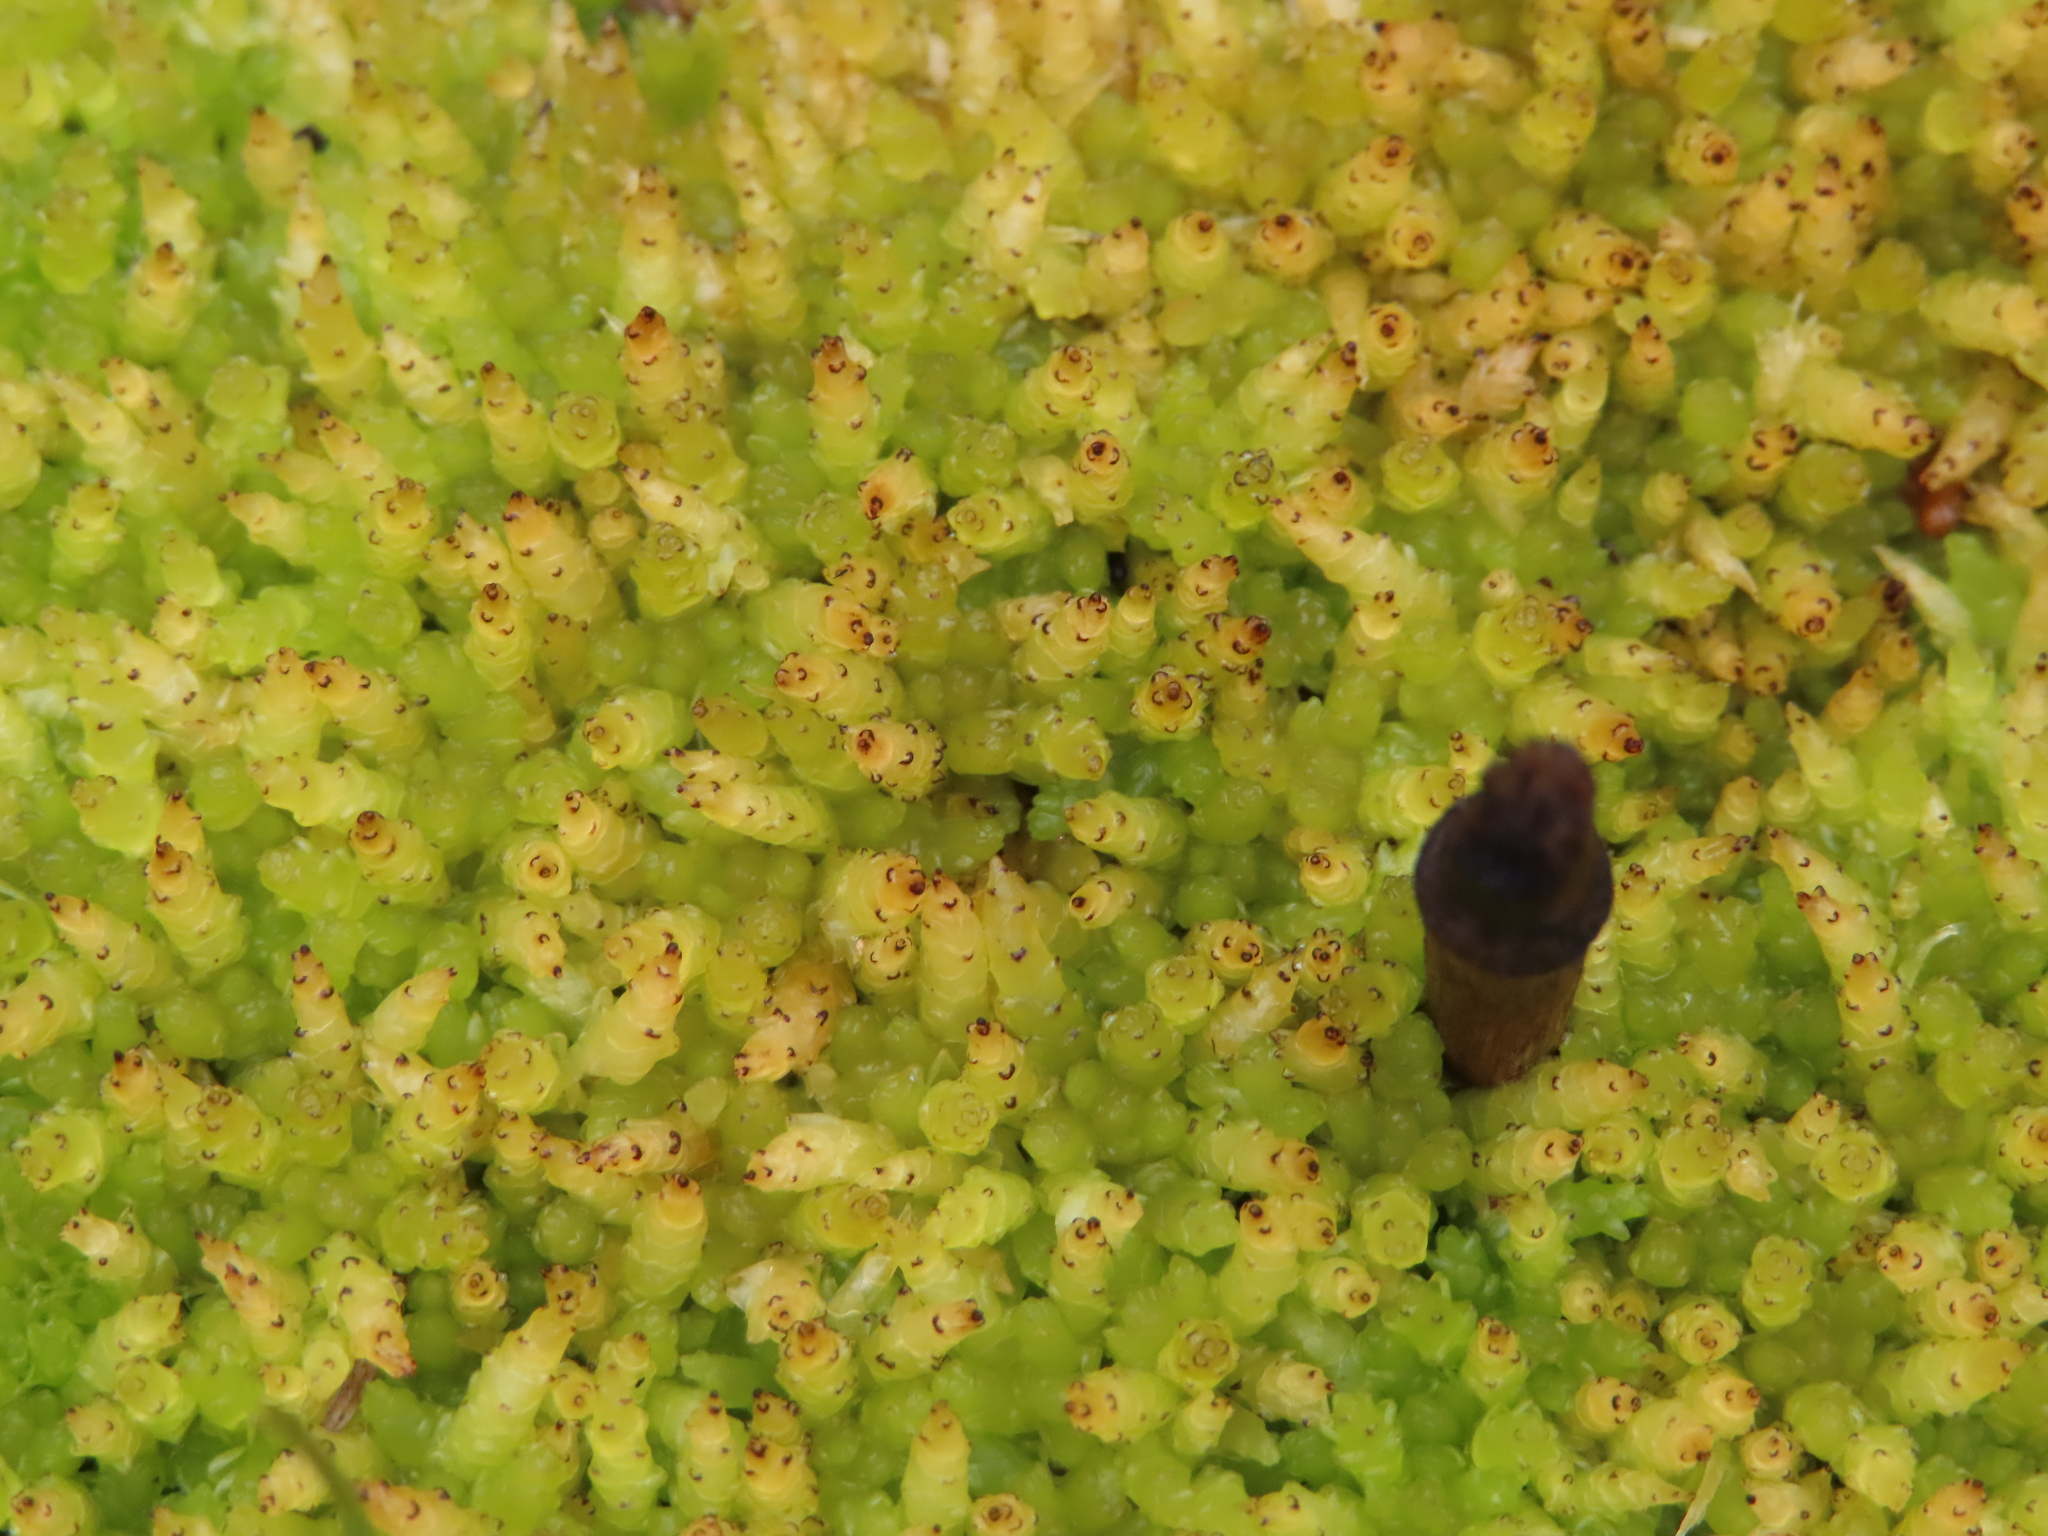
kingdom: Plantae
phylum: Bryophyta
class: Sphagnopsida
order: Sphagnales
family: Sphagnaceae
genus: Sphagnum
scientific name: Sphagnum perichaetiale
